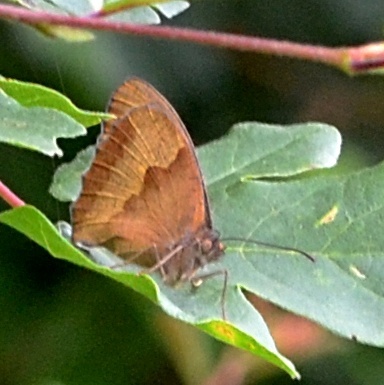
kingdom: Animalia
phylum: Arthropoda
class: Insecta
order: Lepidoptera
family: Nymphalidae
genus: Maniola
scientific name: Maniola jurtina
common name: Meadow brown
